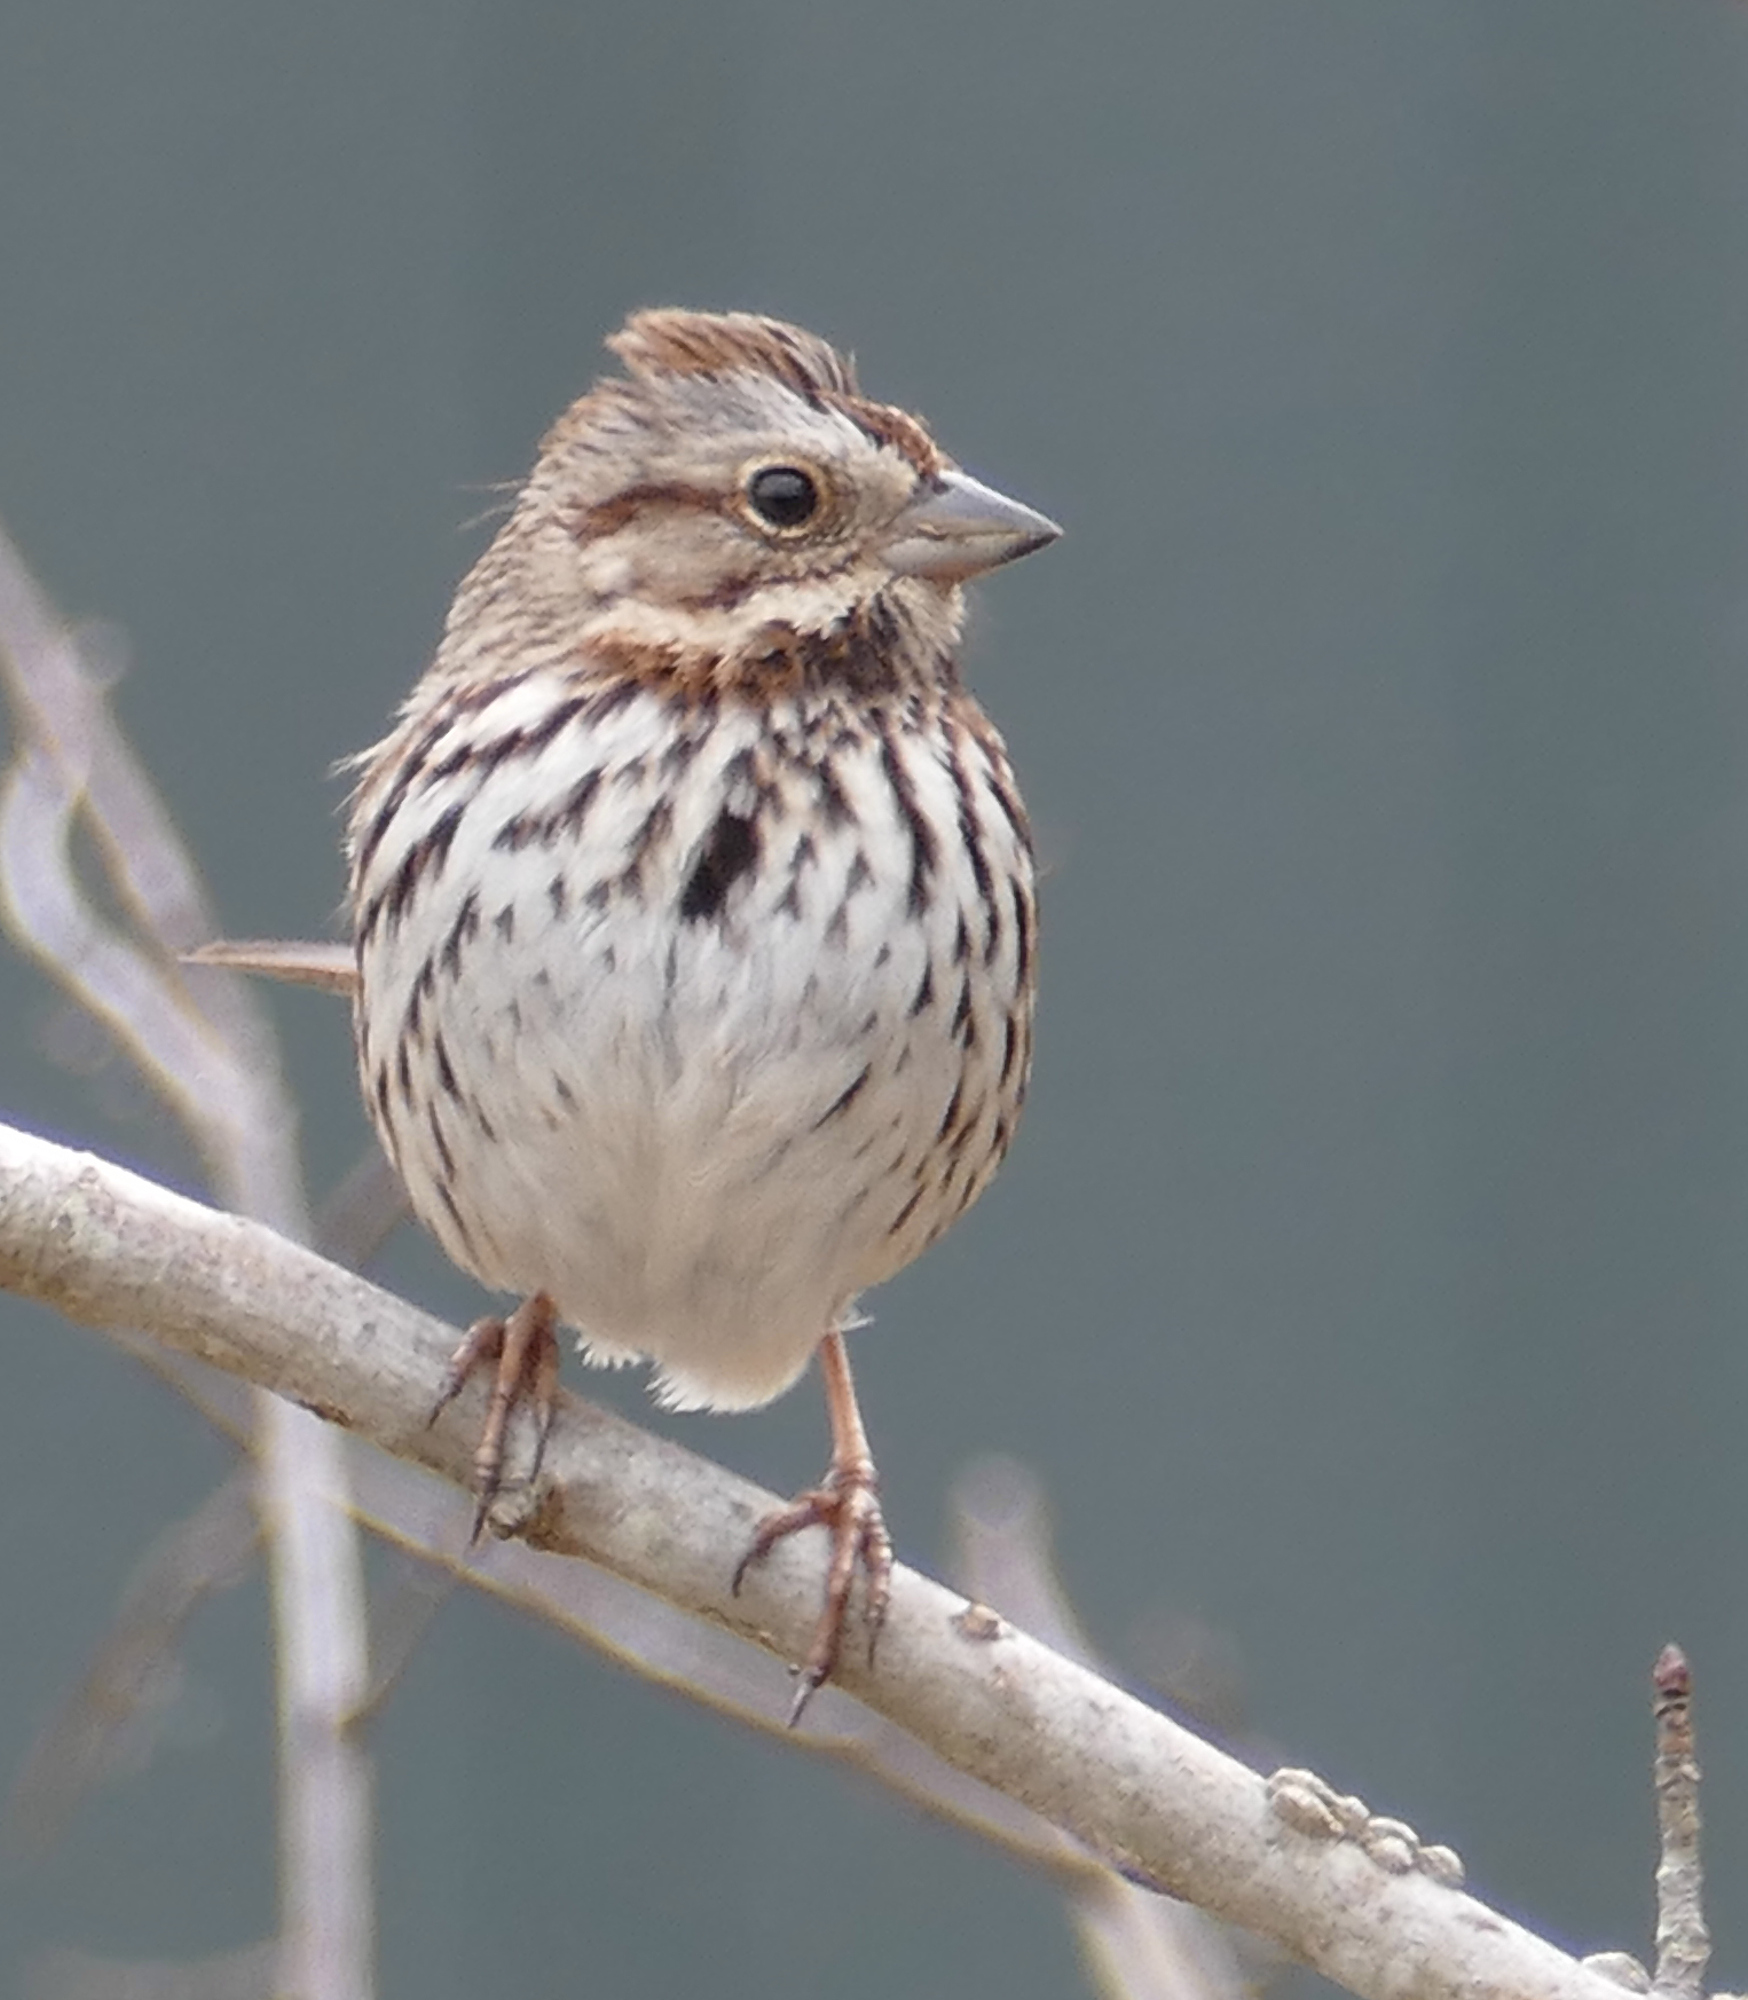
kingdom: Animalia
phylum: Chordata
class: Aves
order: Passeriformes
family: Passerellidae
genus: Melospiza
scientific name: Melospiza melodia
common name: Song sparrow
